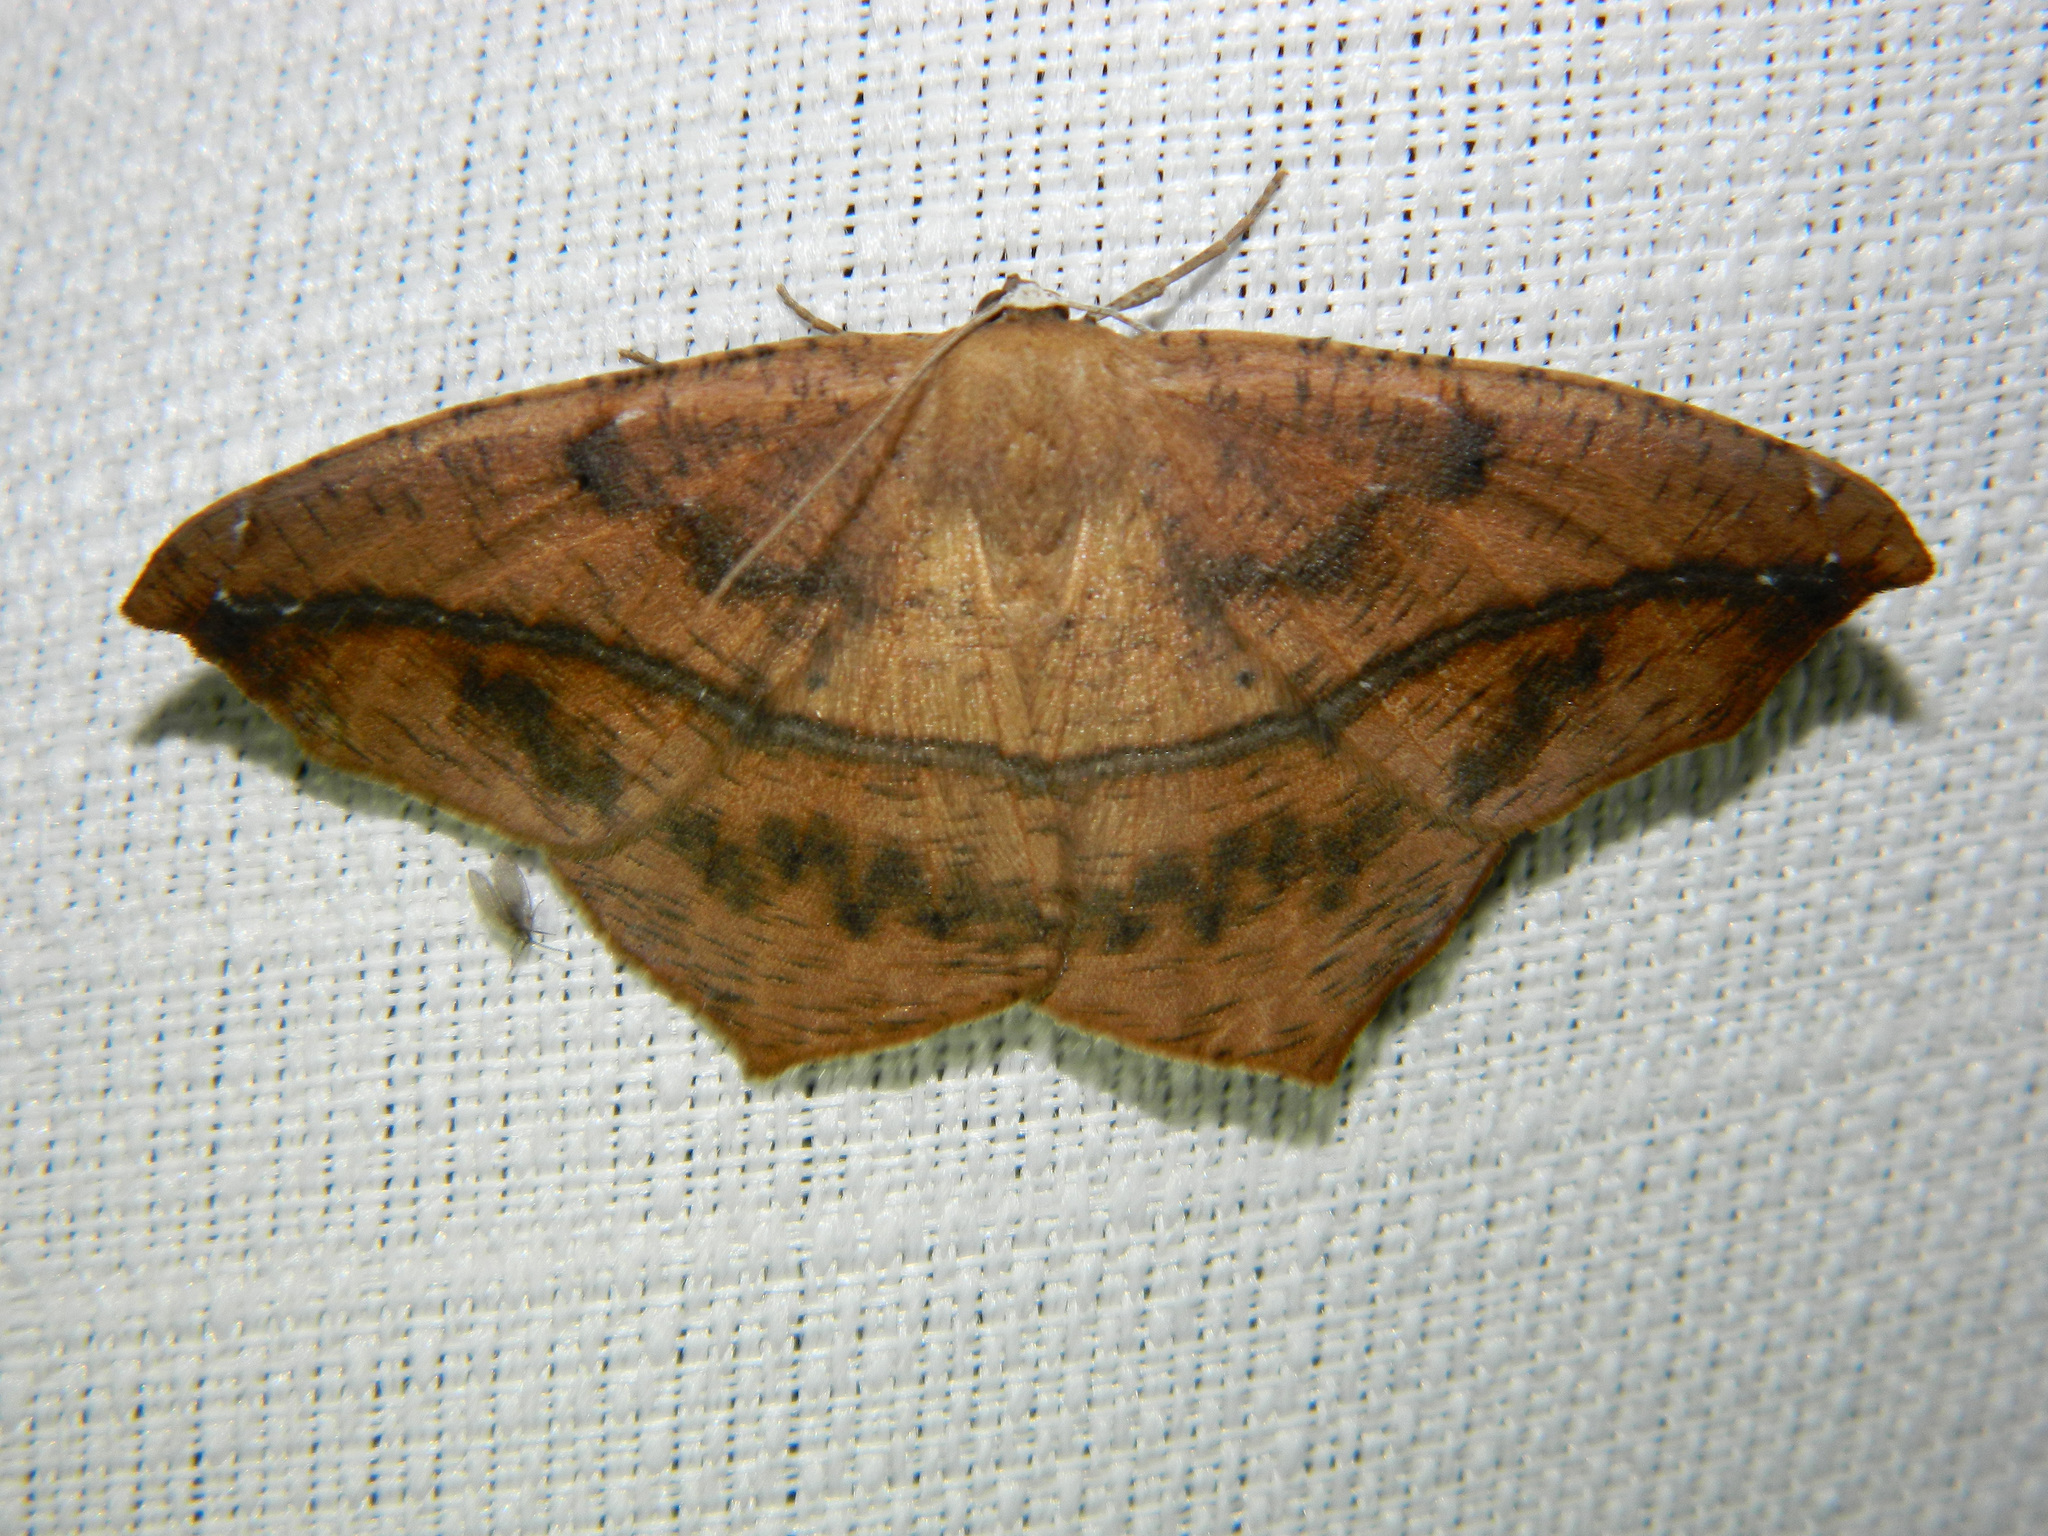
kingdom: Animalia
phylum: Arthropoda
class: Insecta
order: Lepidoptera
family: Geometridae
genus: Prochoerodes
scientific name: Prochoerodes lineola
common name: Large maple spanworm
